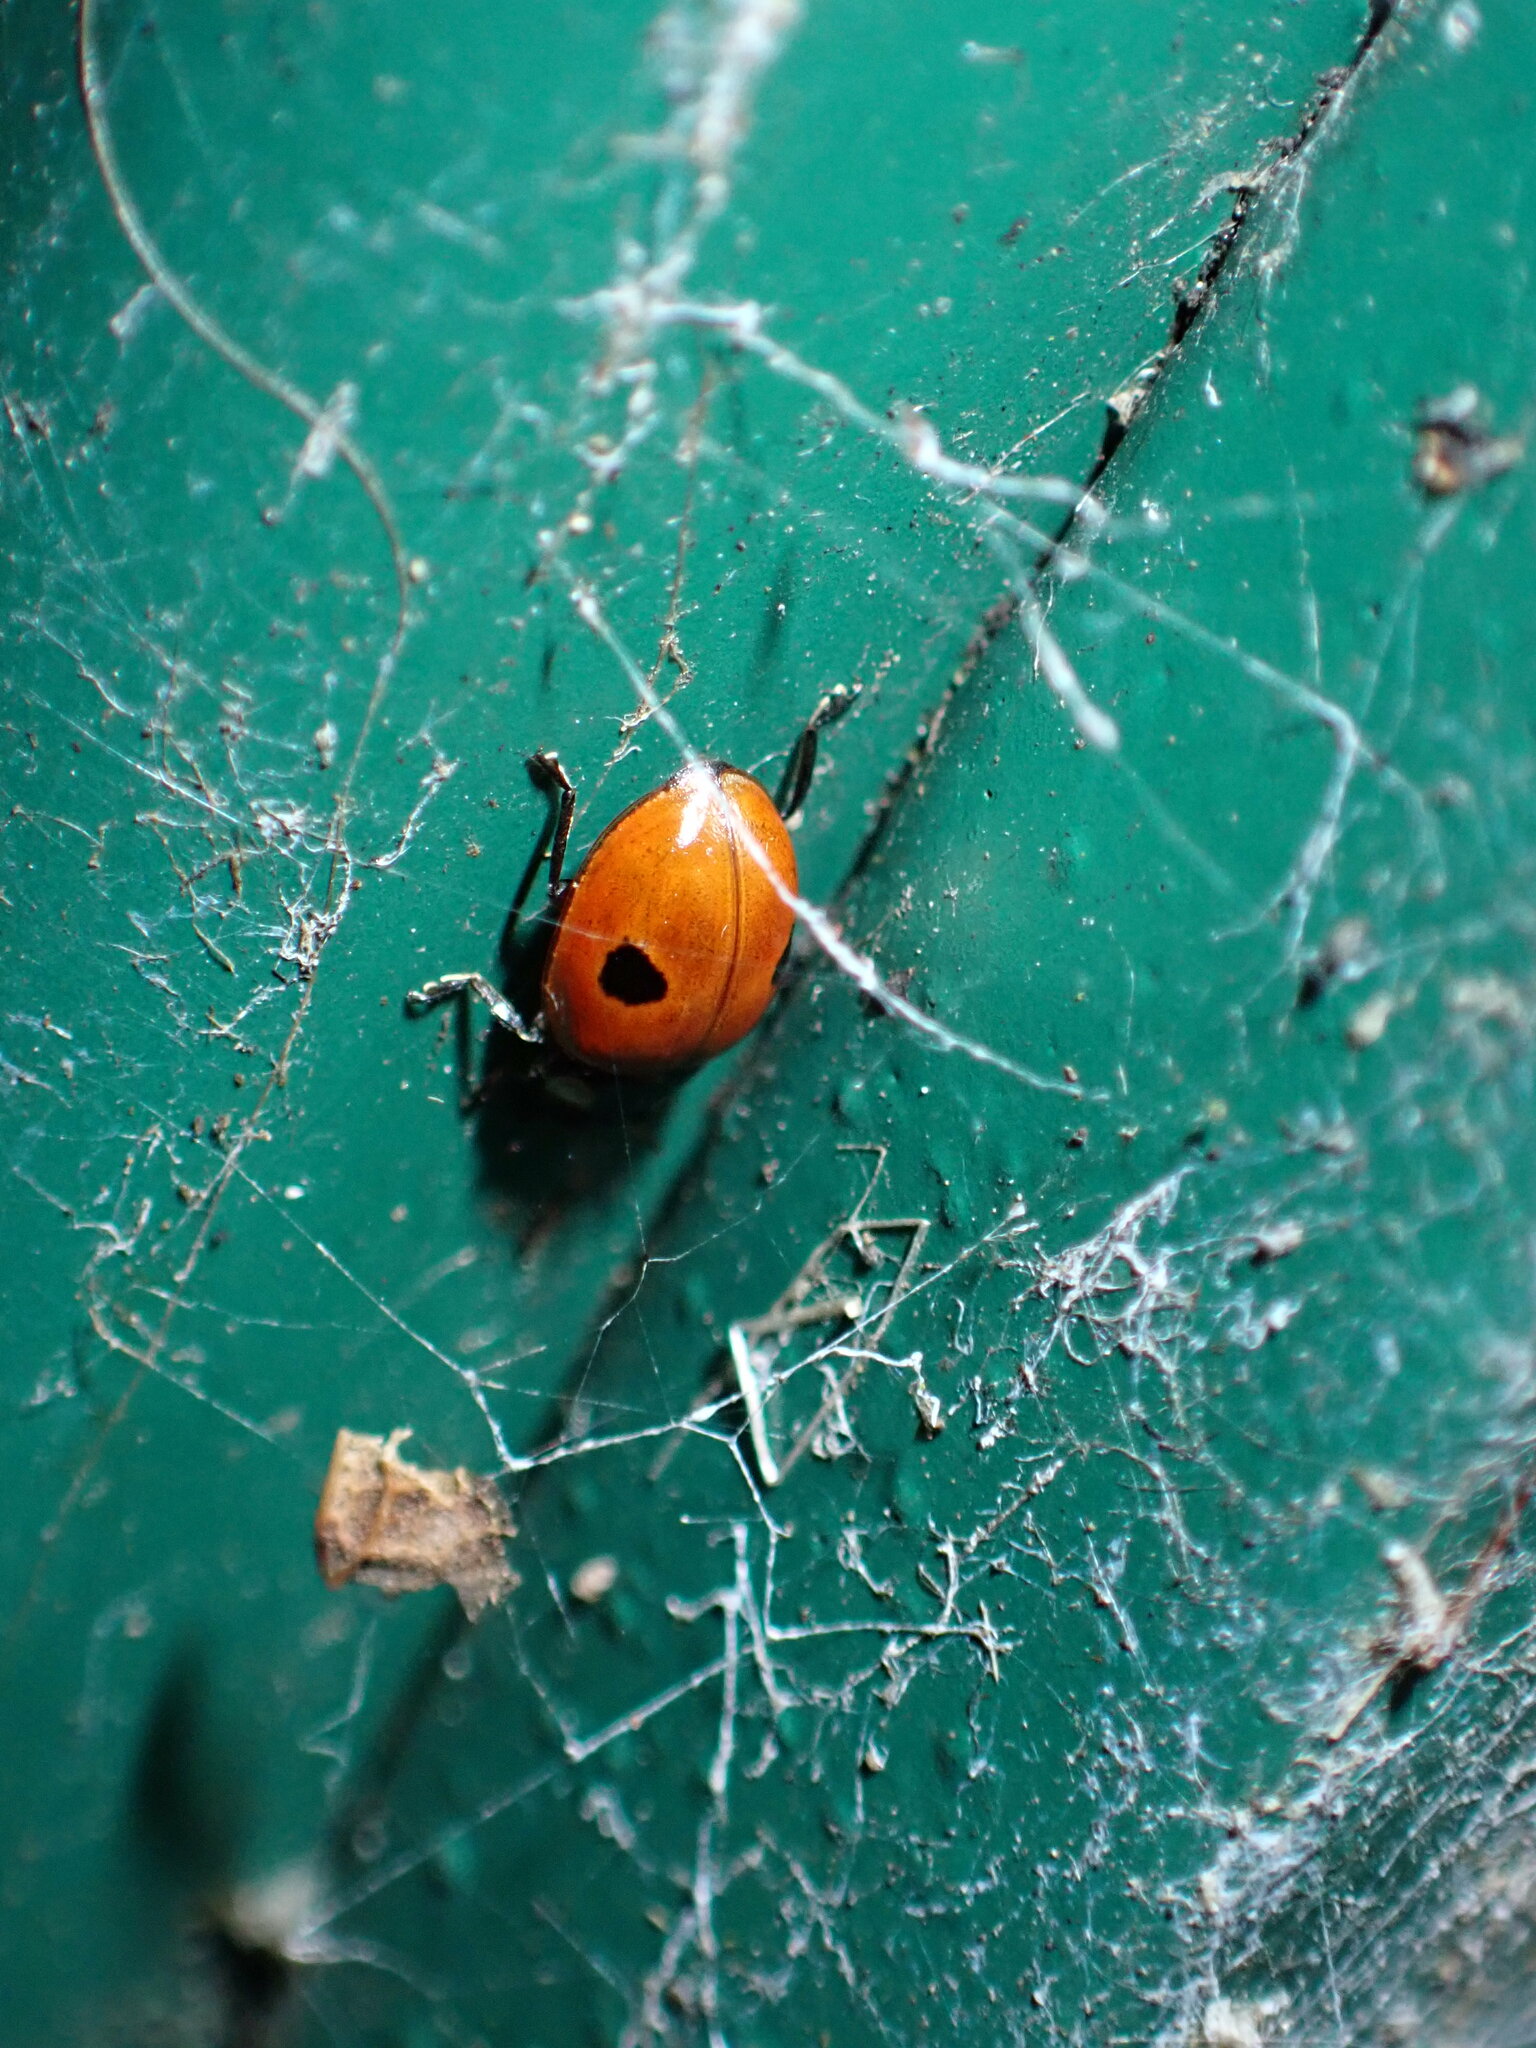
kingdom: Animalia
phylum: Arthropoda
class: Insecta
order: Coleoptera
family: Coccinellidae
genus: Adalia
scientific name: Adalia bipunctata
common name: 2-spot ladybird
